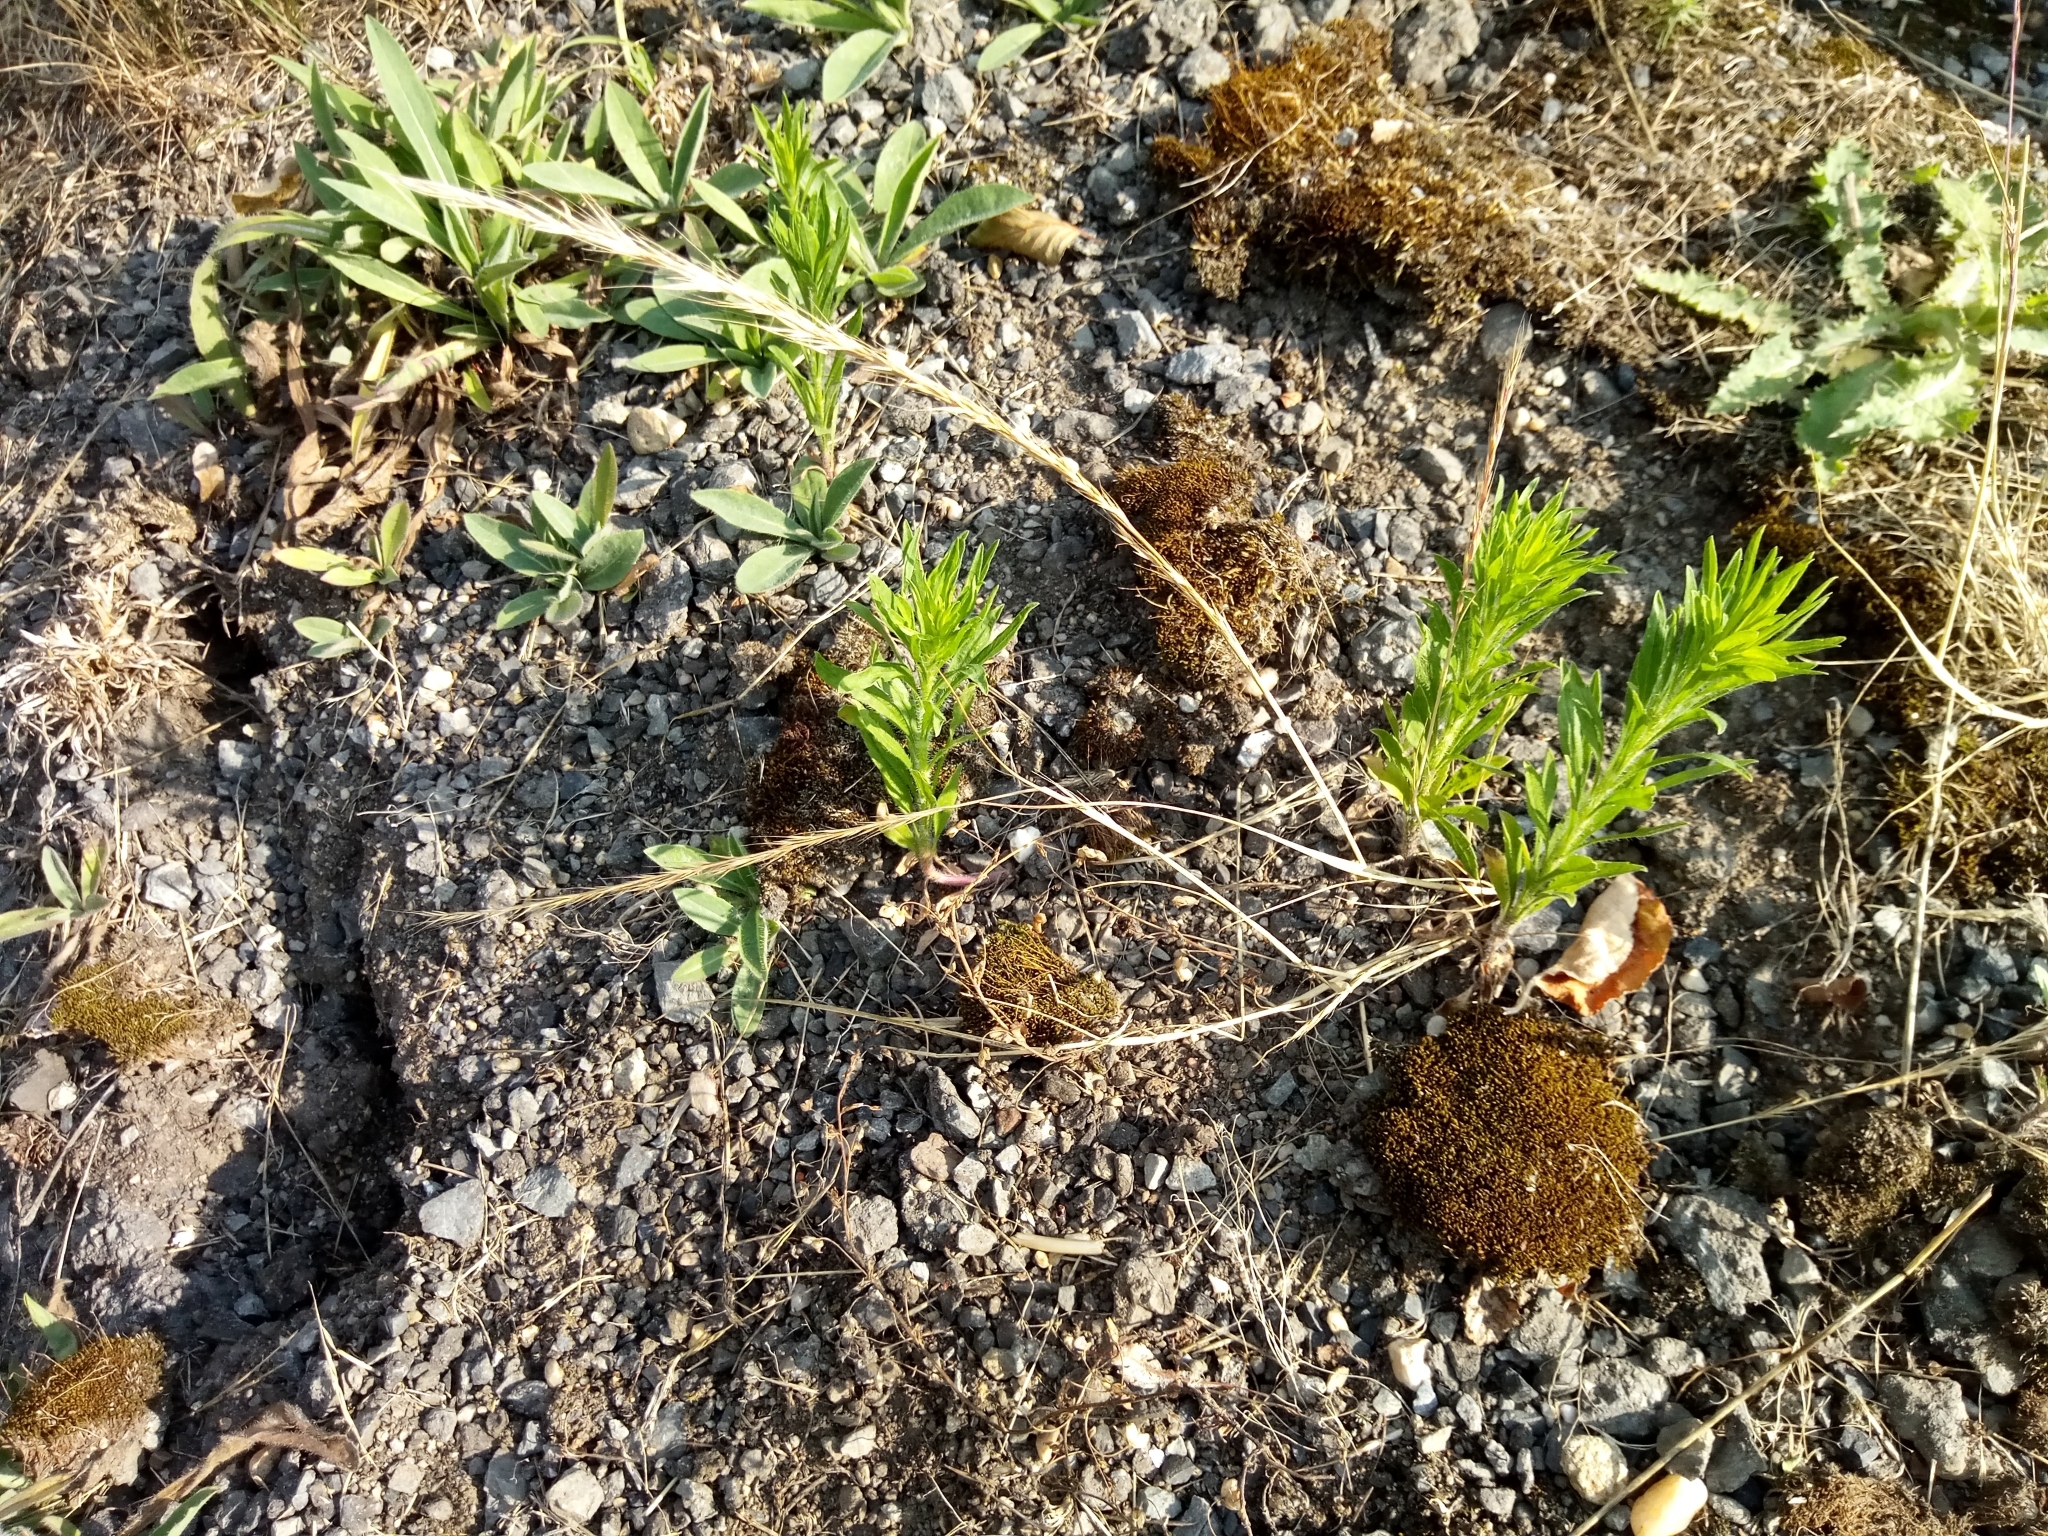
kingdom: Plantae
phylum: Tracheophyta
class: Liliopsida
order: Poales
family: Poaceae
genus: Festuca
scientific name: Festuca myuros
